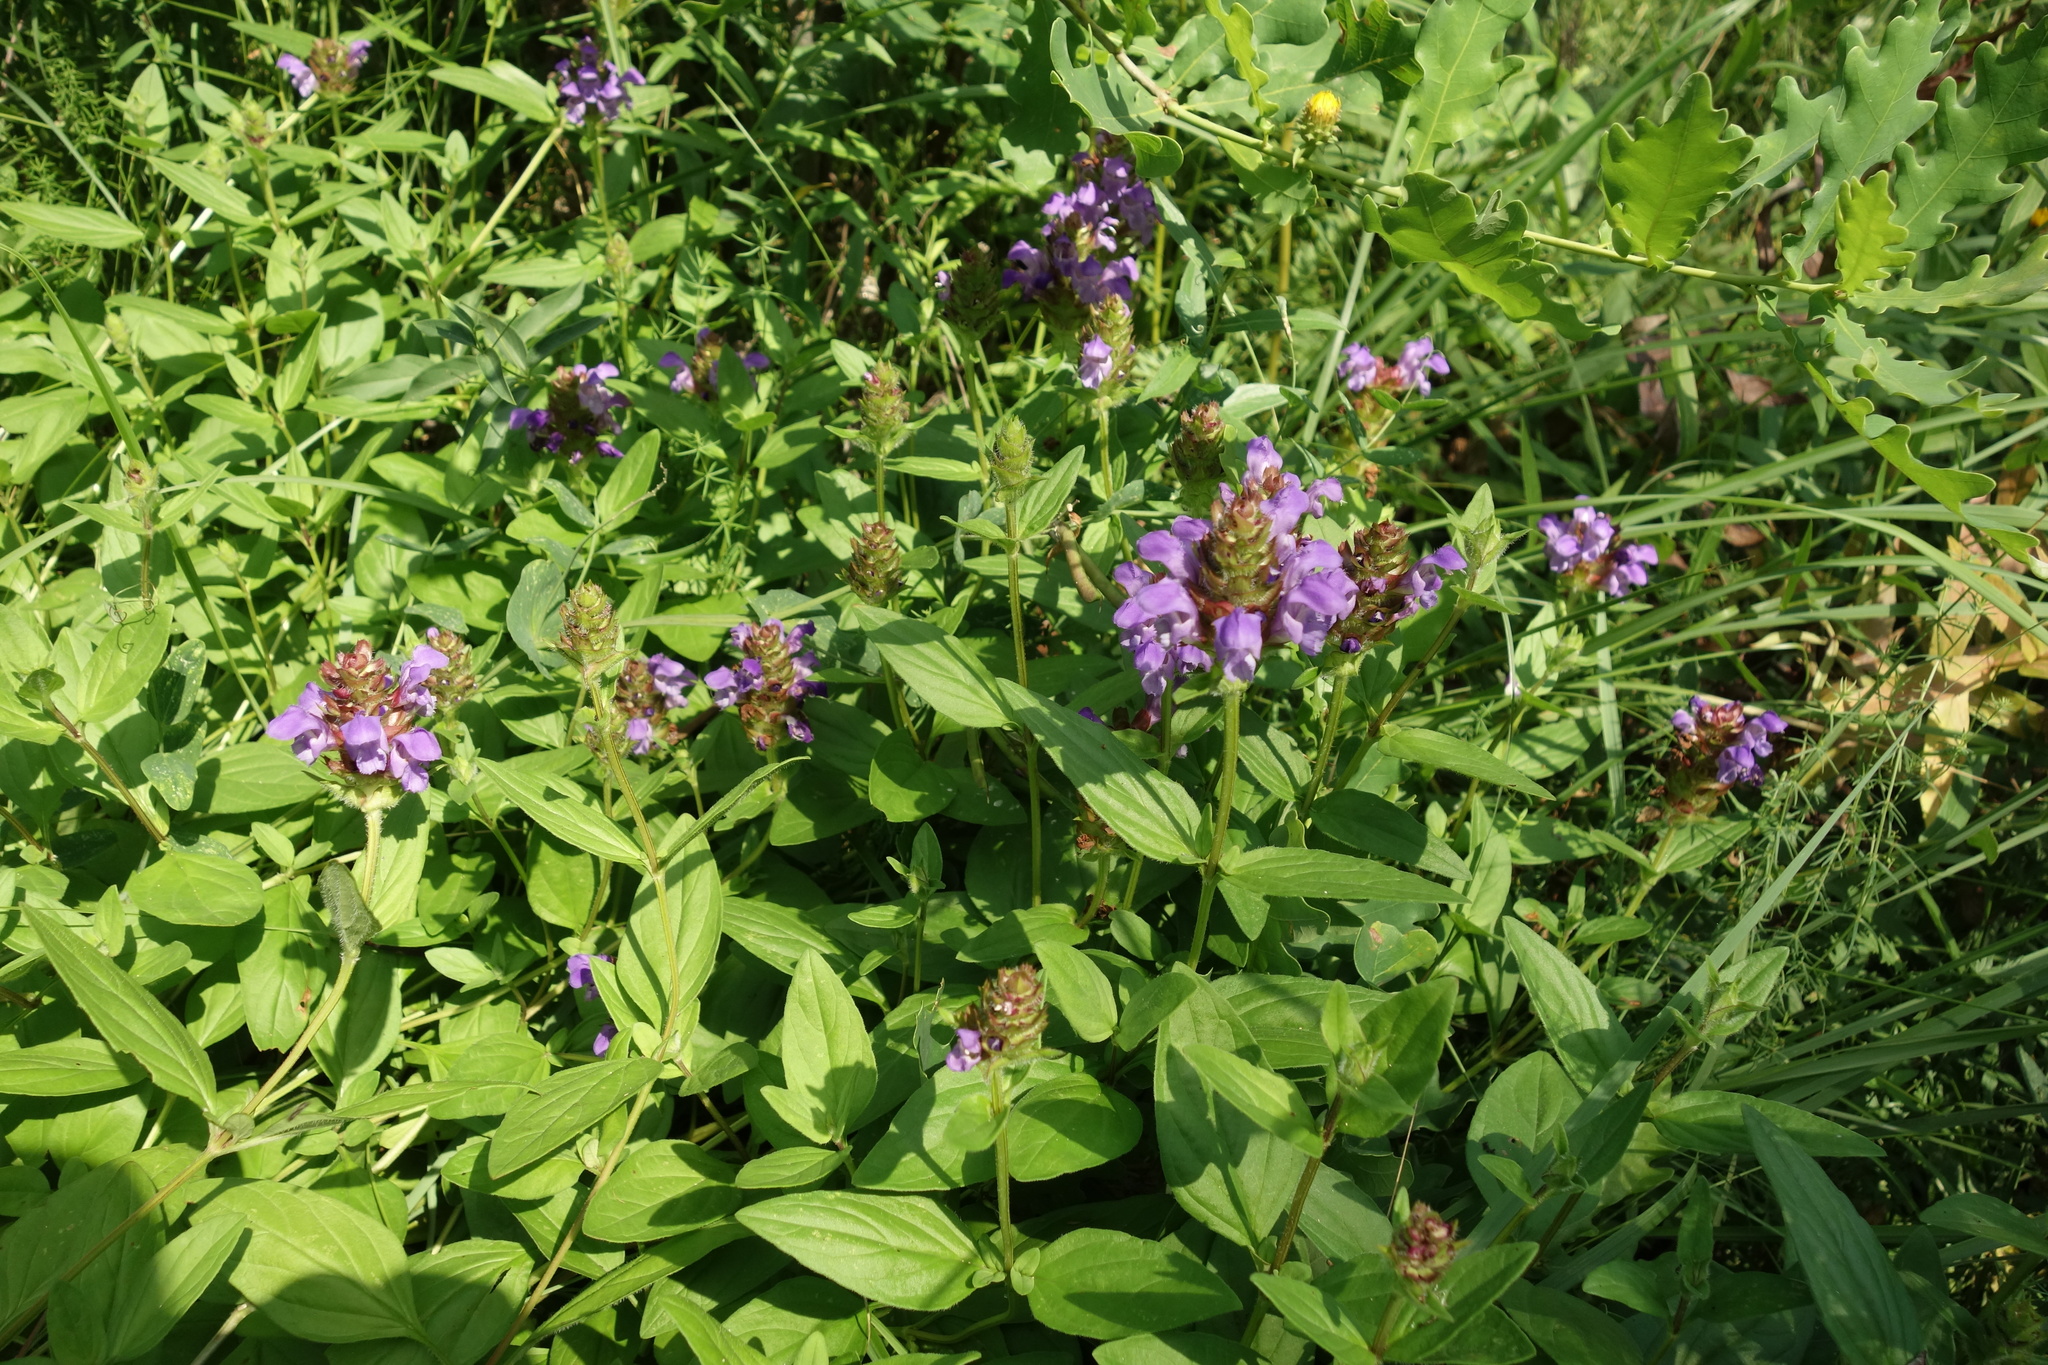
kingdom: Plantae
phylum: Tracheophyta
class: Magnoliopsida
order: Lamiales
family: Lamiaceae
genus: Prunella
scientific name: Prunella grandiflora
